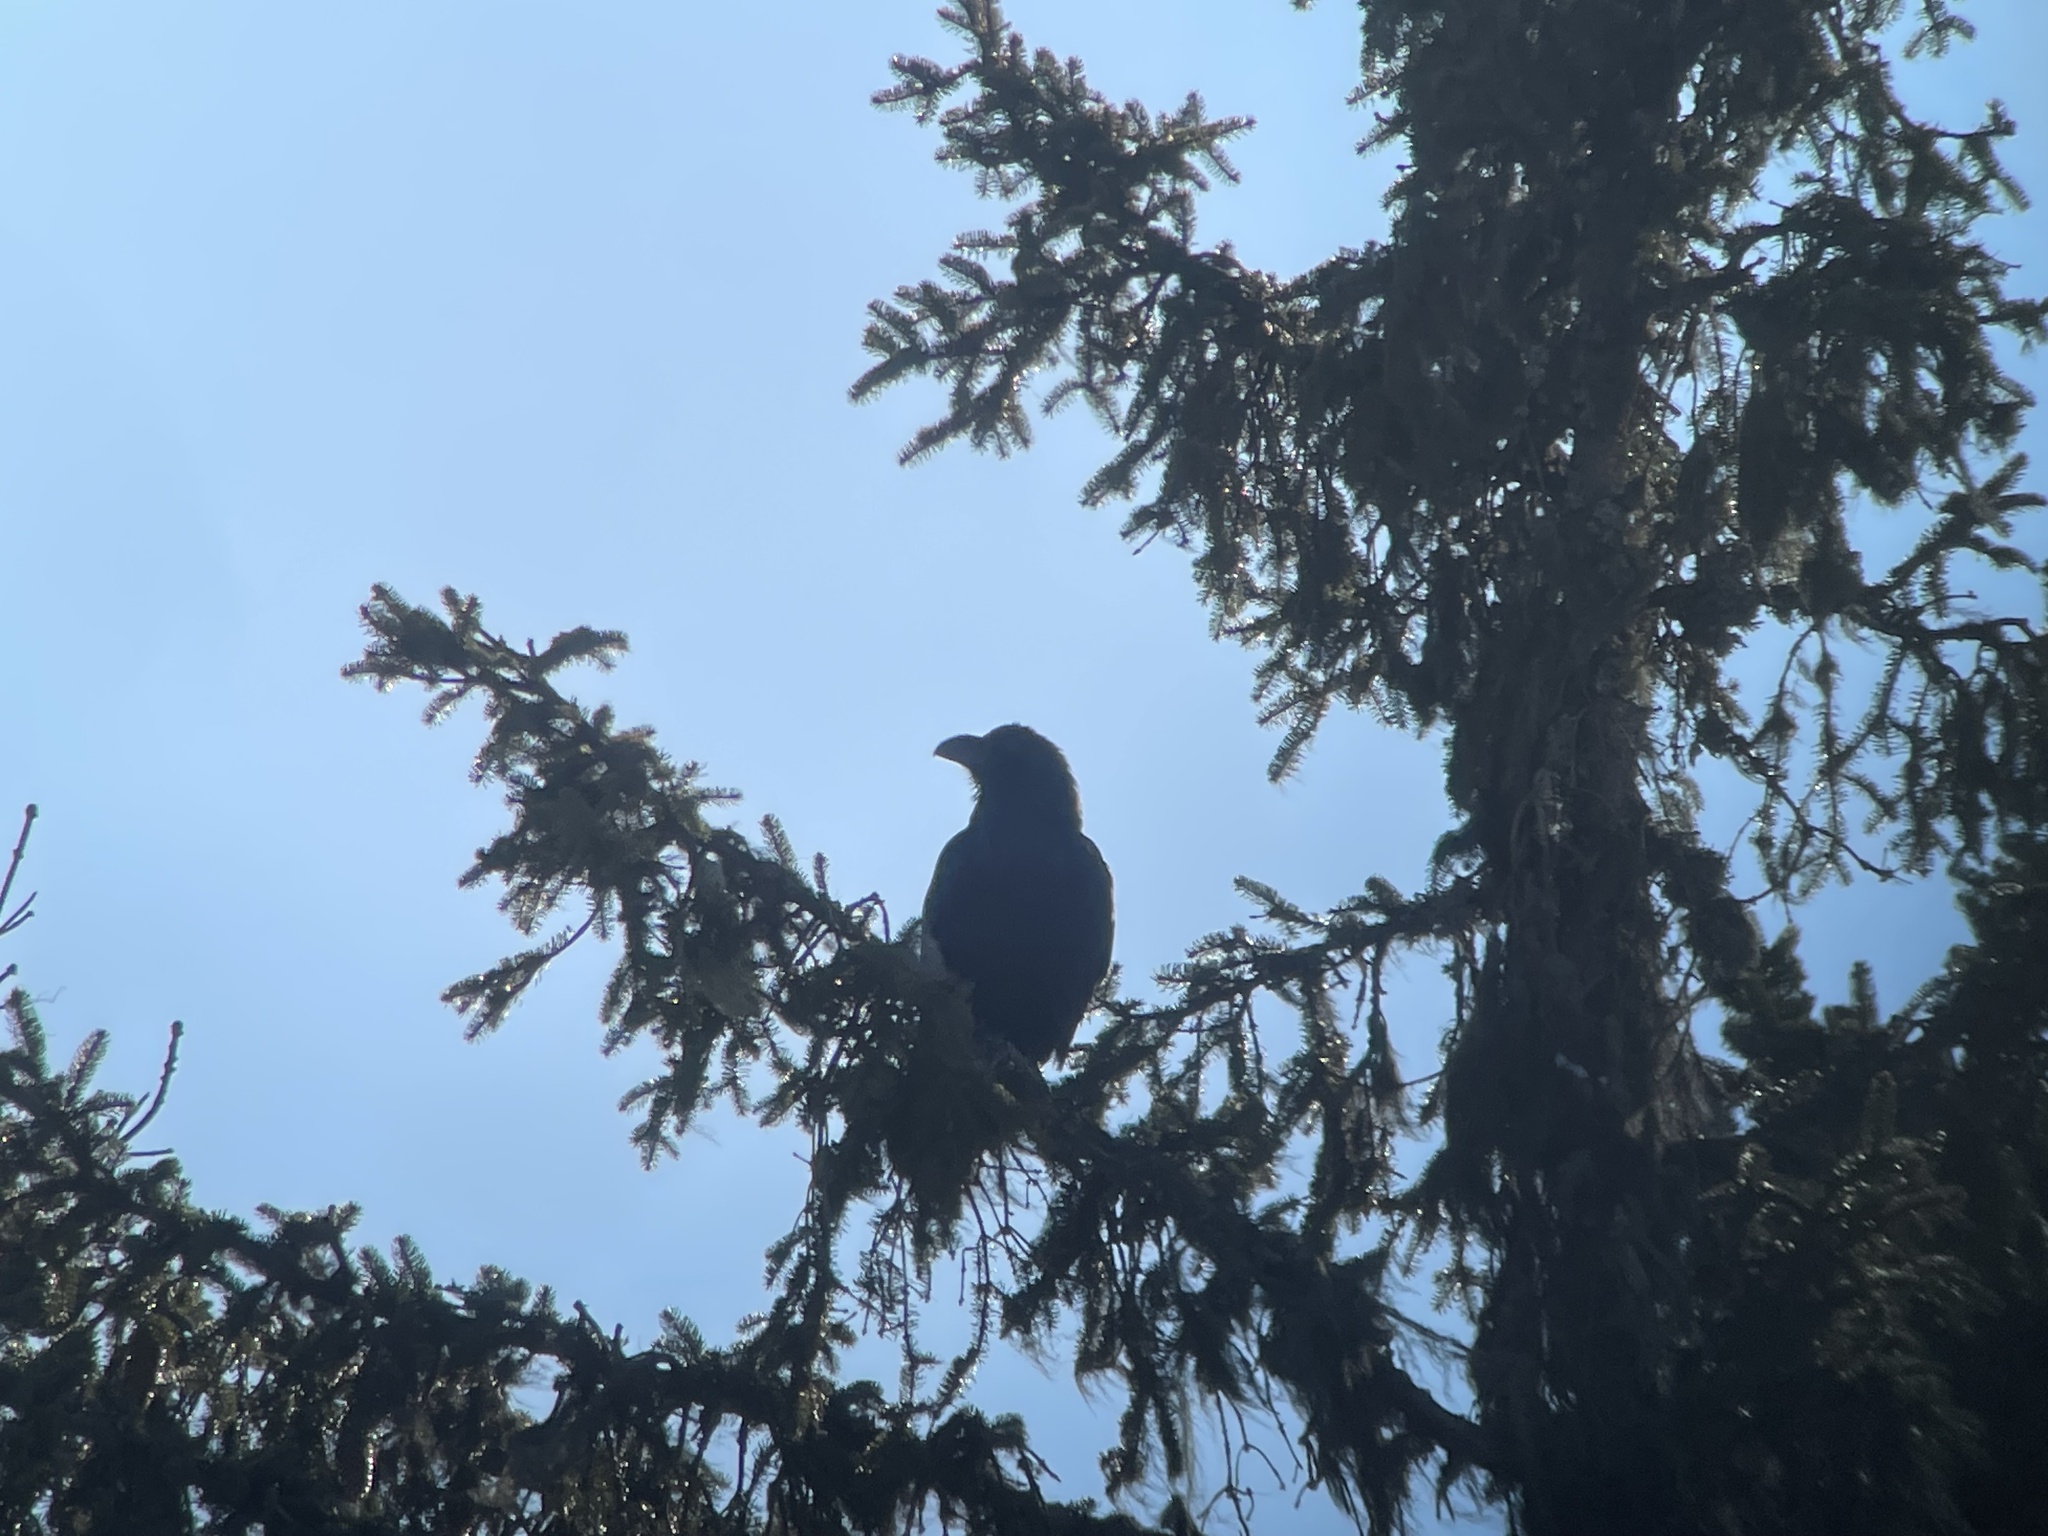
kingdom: Animalia
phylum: Chordata
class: Aves
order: Passeriformes
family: Corvidae
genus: Corvus
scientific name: Corvus corax
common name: Common raven
